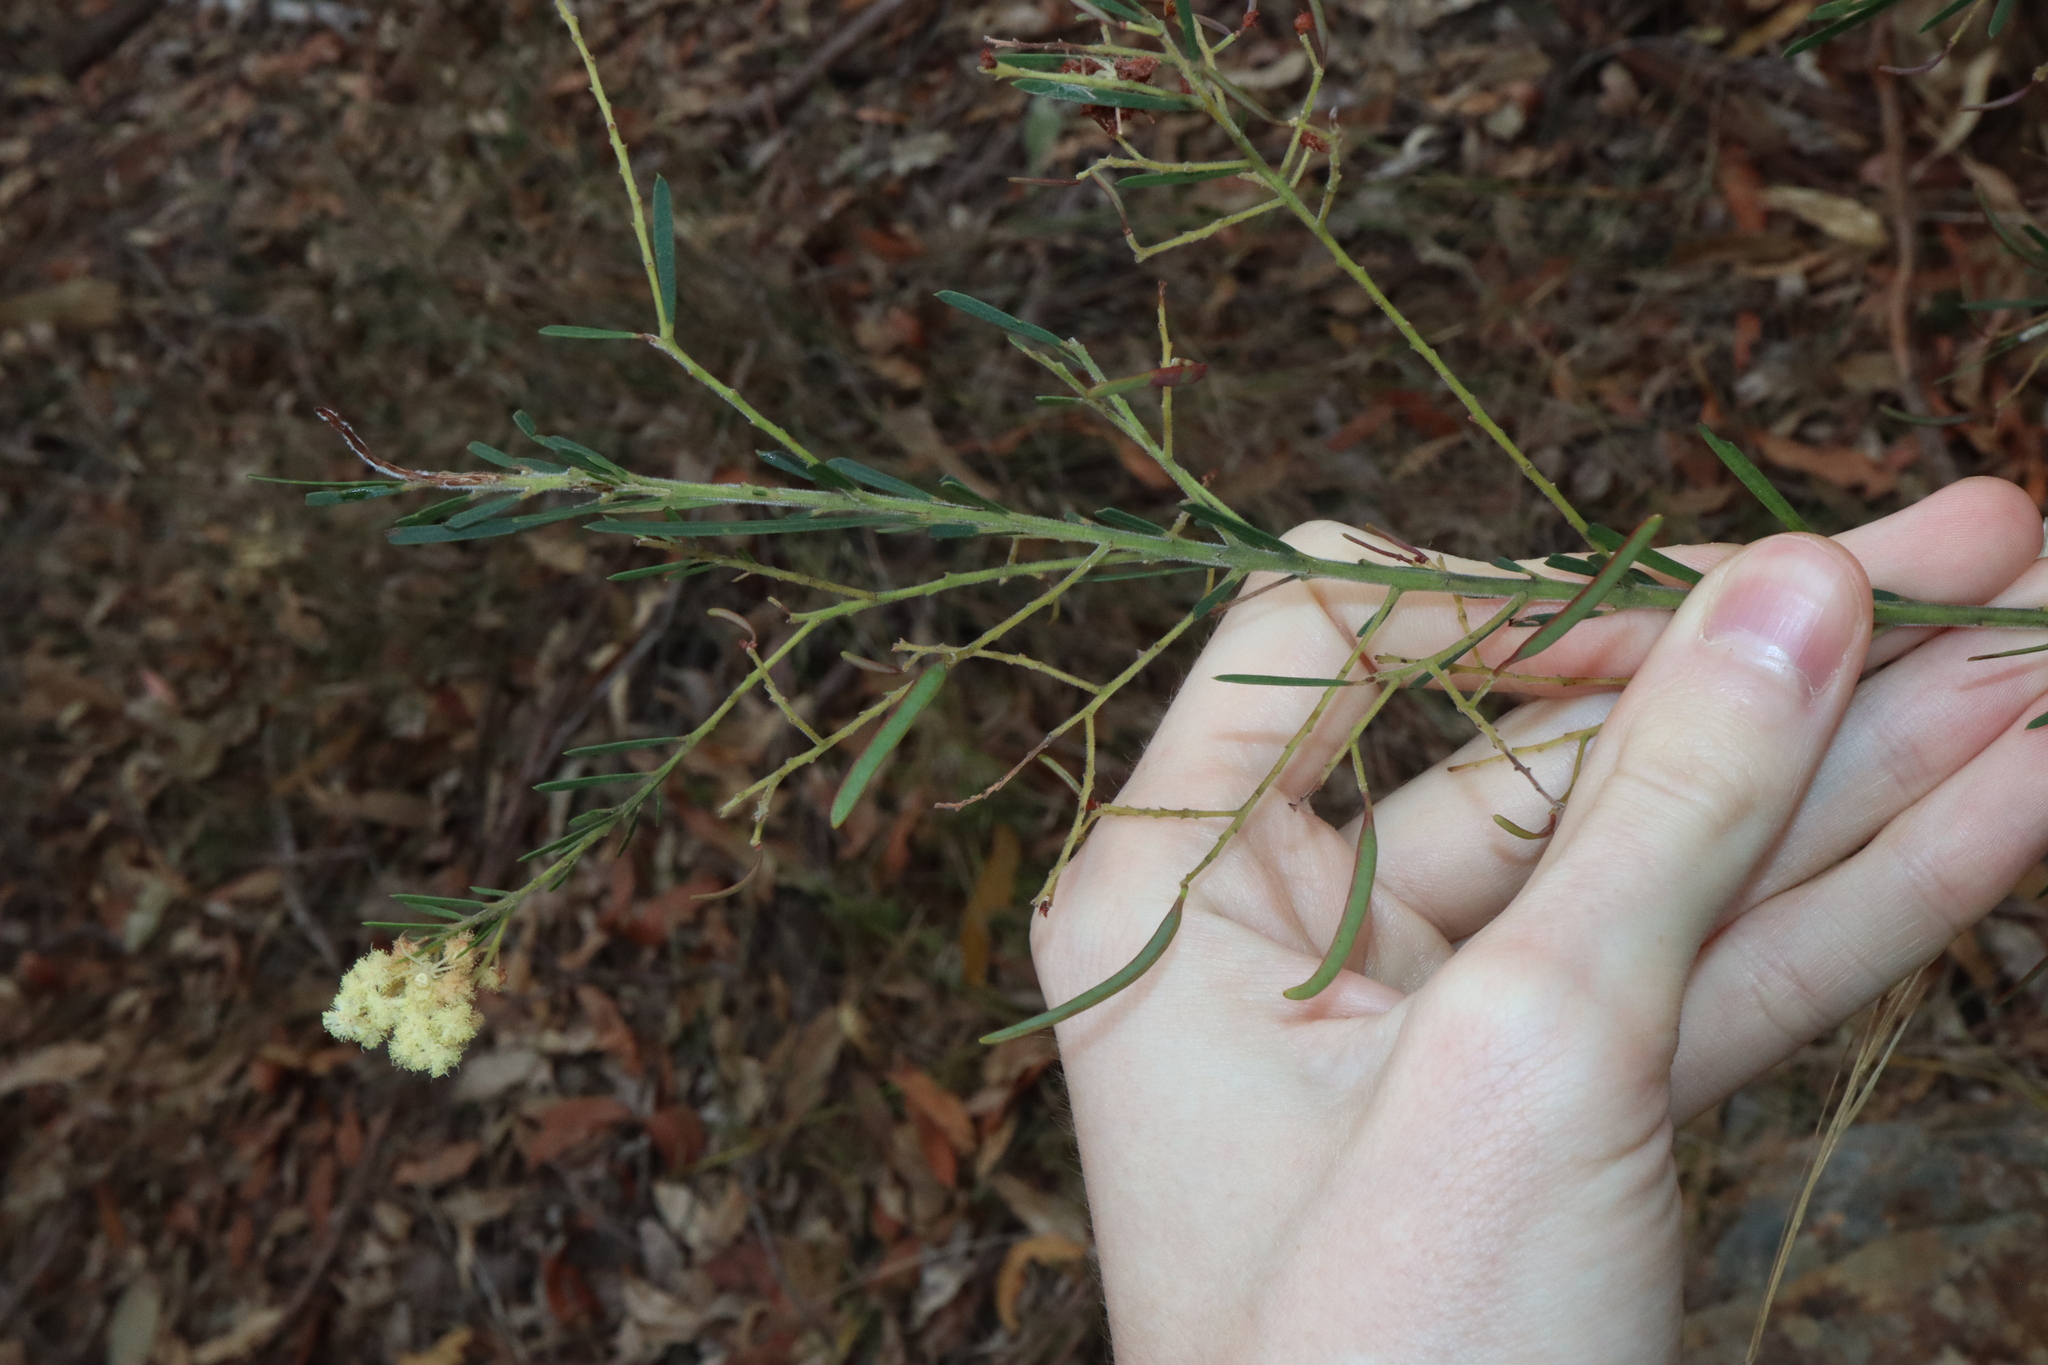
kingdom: Plantae
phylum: Tracheophyta
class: Magnoliopsida
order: Fabales
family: Fabaceae
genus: Acacia
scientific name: Acacia linifolia
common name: White wattle
